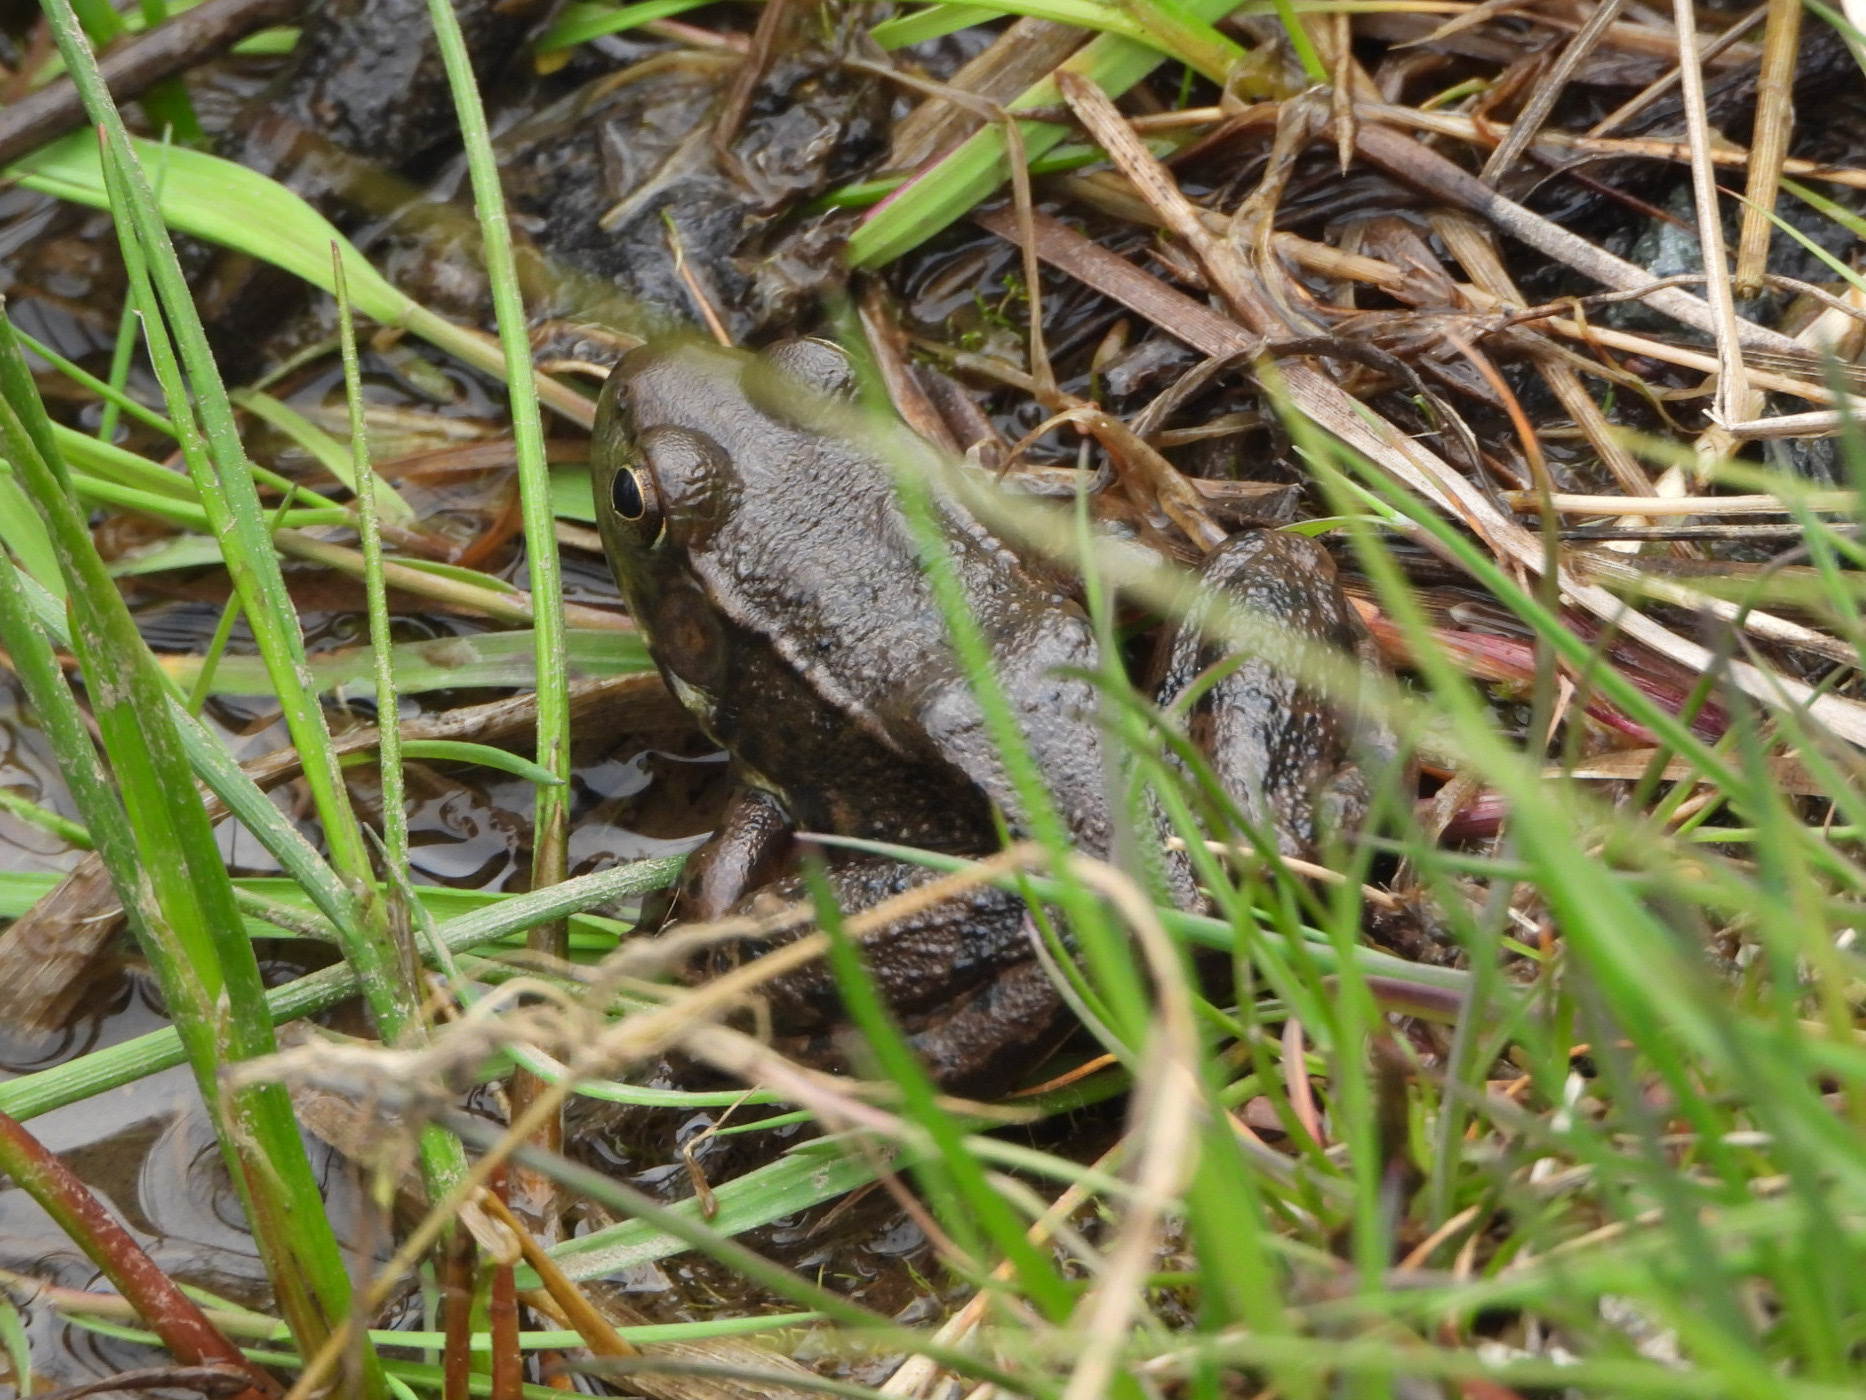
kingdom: Animalia
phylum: Chordata
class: Amphibia
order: Anura
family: Ranidae
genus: Lithobates
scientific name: Lithobates clamitans
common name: Green frog
